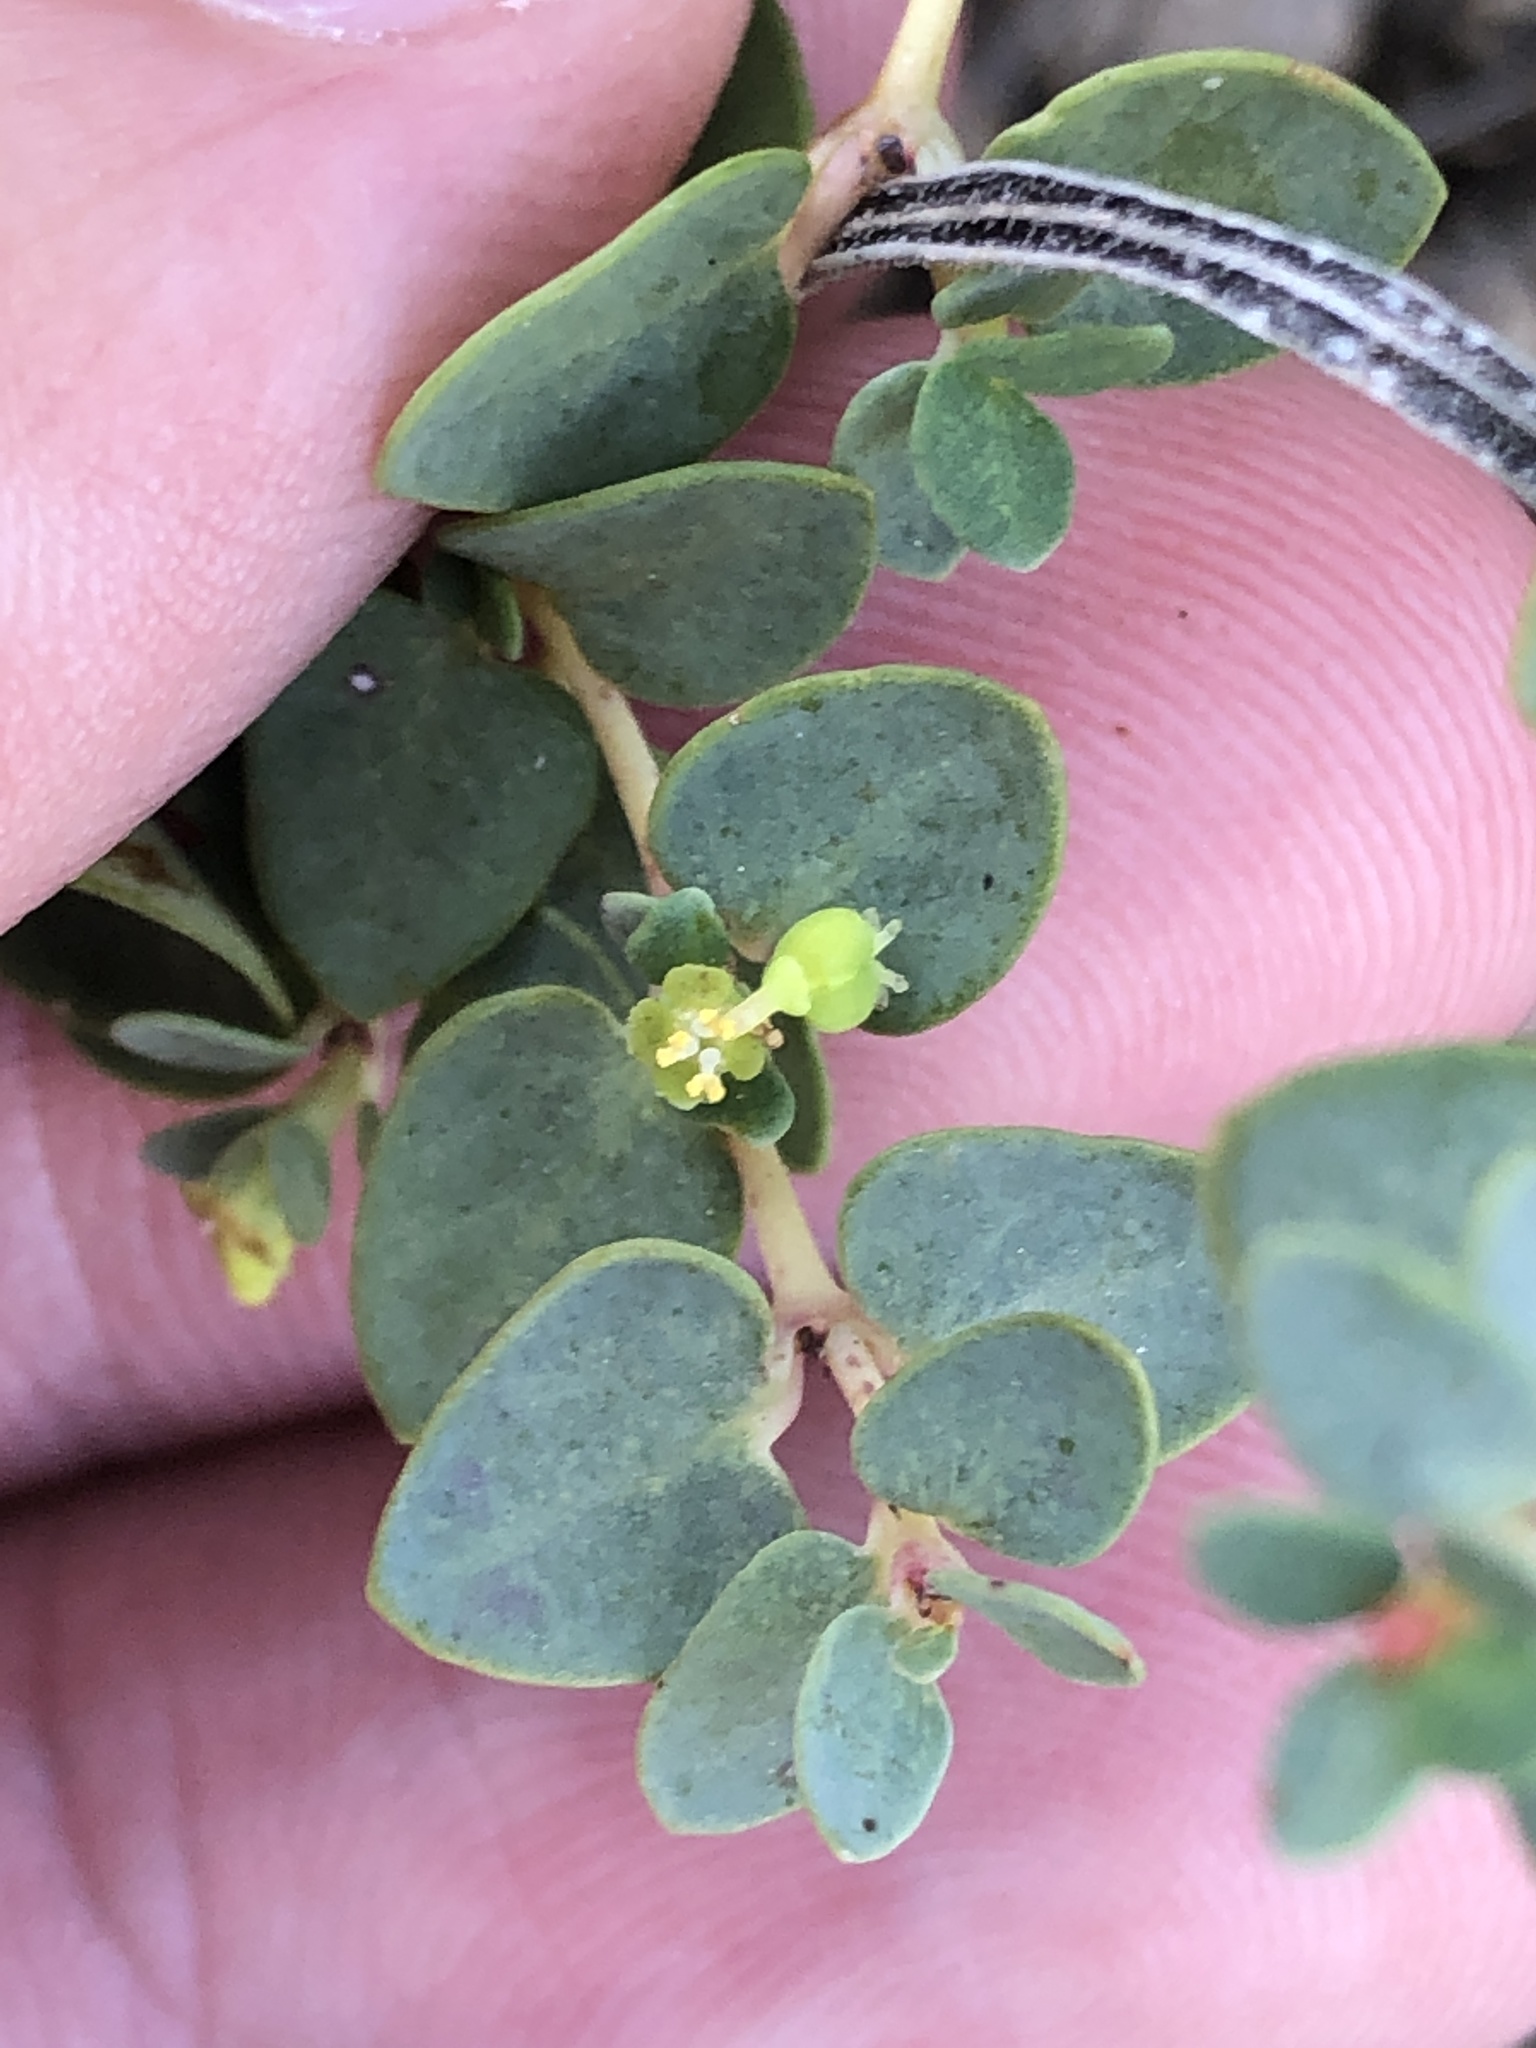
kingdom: Plantae
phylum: Tracheophyta
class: Magnoliopsida
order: Malpighiales
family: Euphorbiaceae
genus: Euphorbia
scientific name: Euphorbia fendleri
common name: Fendler's euphorbia
